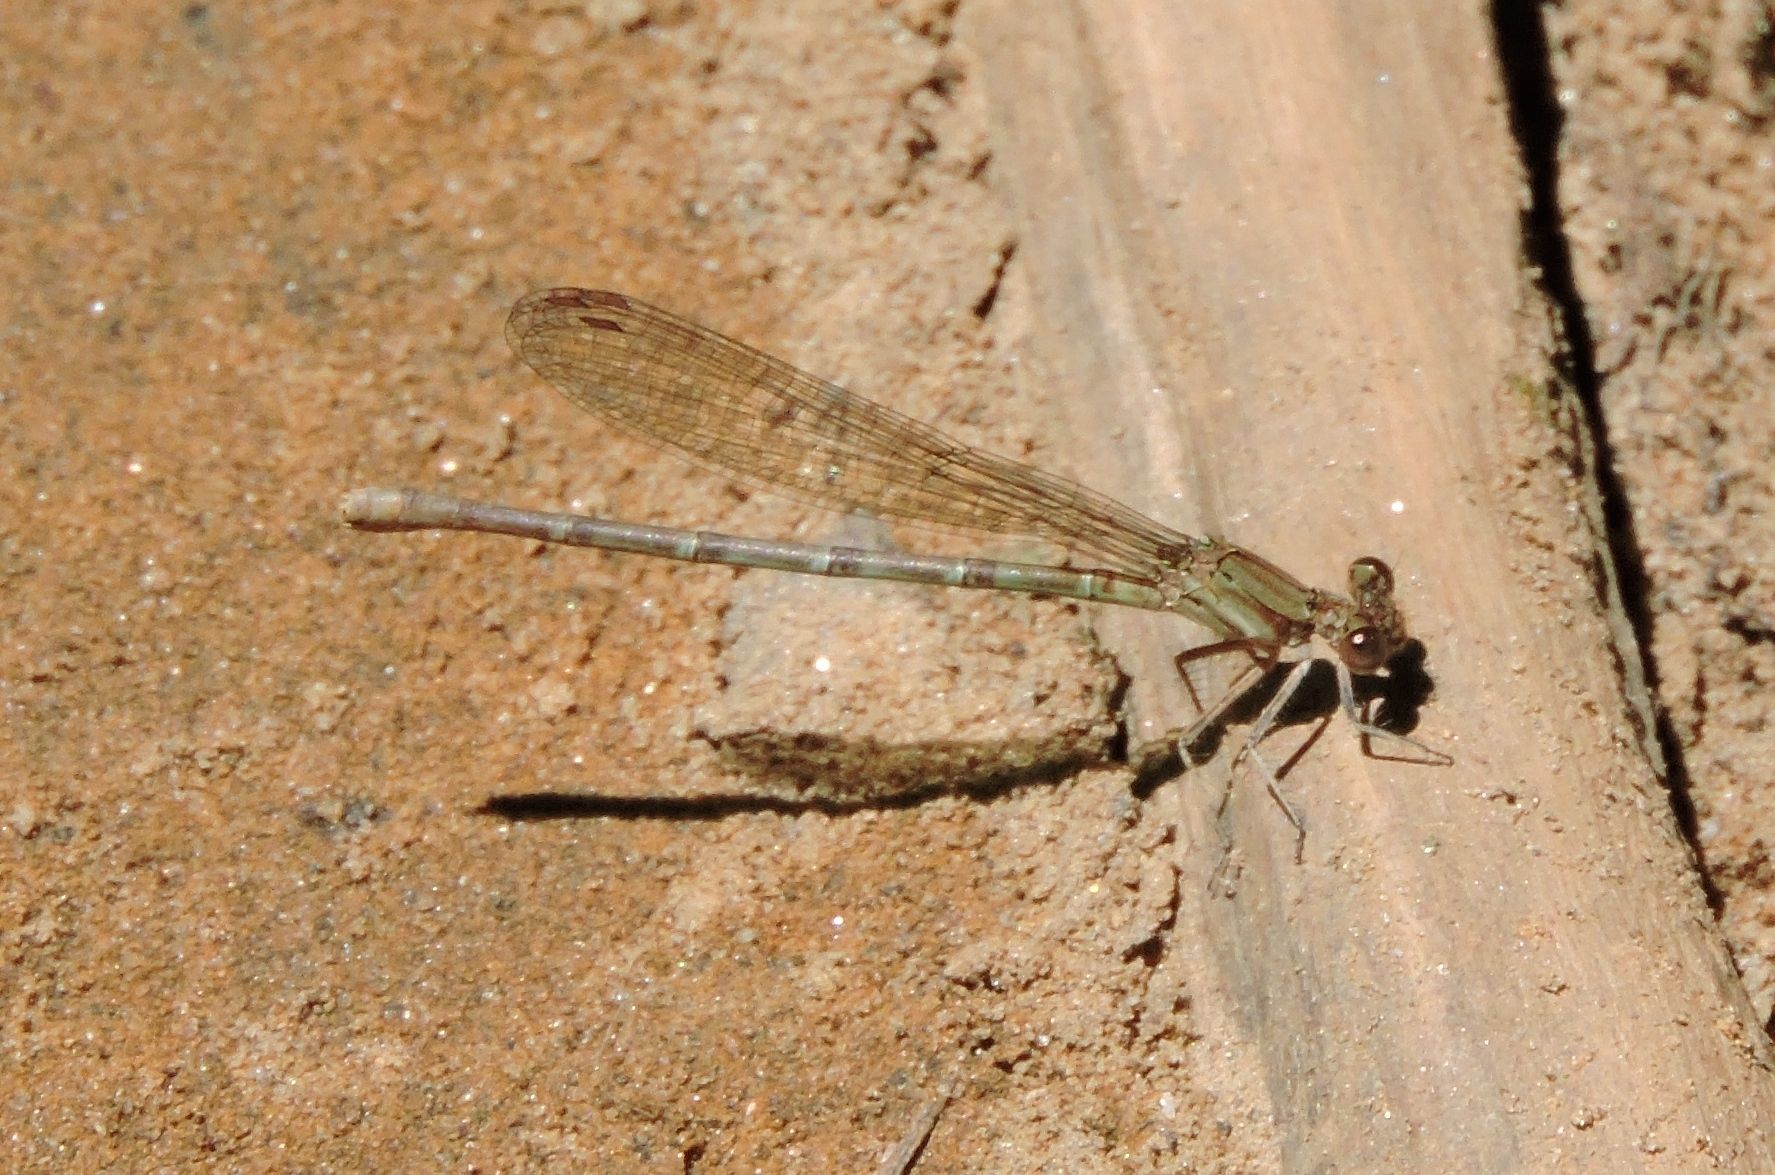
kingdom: Animalia
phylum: Arthropoda
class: Insecta
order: Odonata
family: Coenagrionidae
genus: Argia
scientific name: Argia sedula
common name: Blue-ringed dancer
